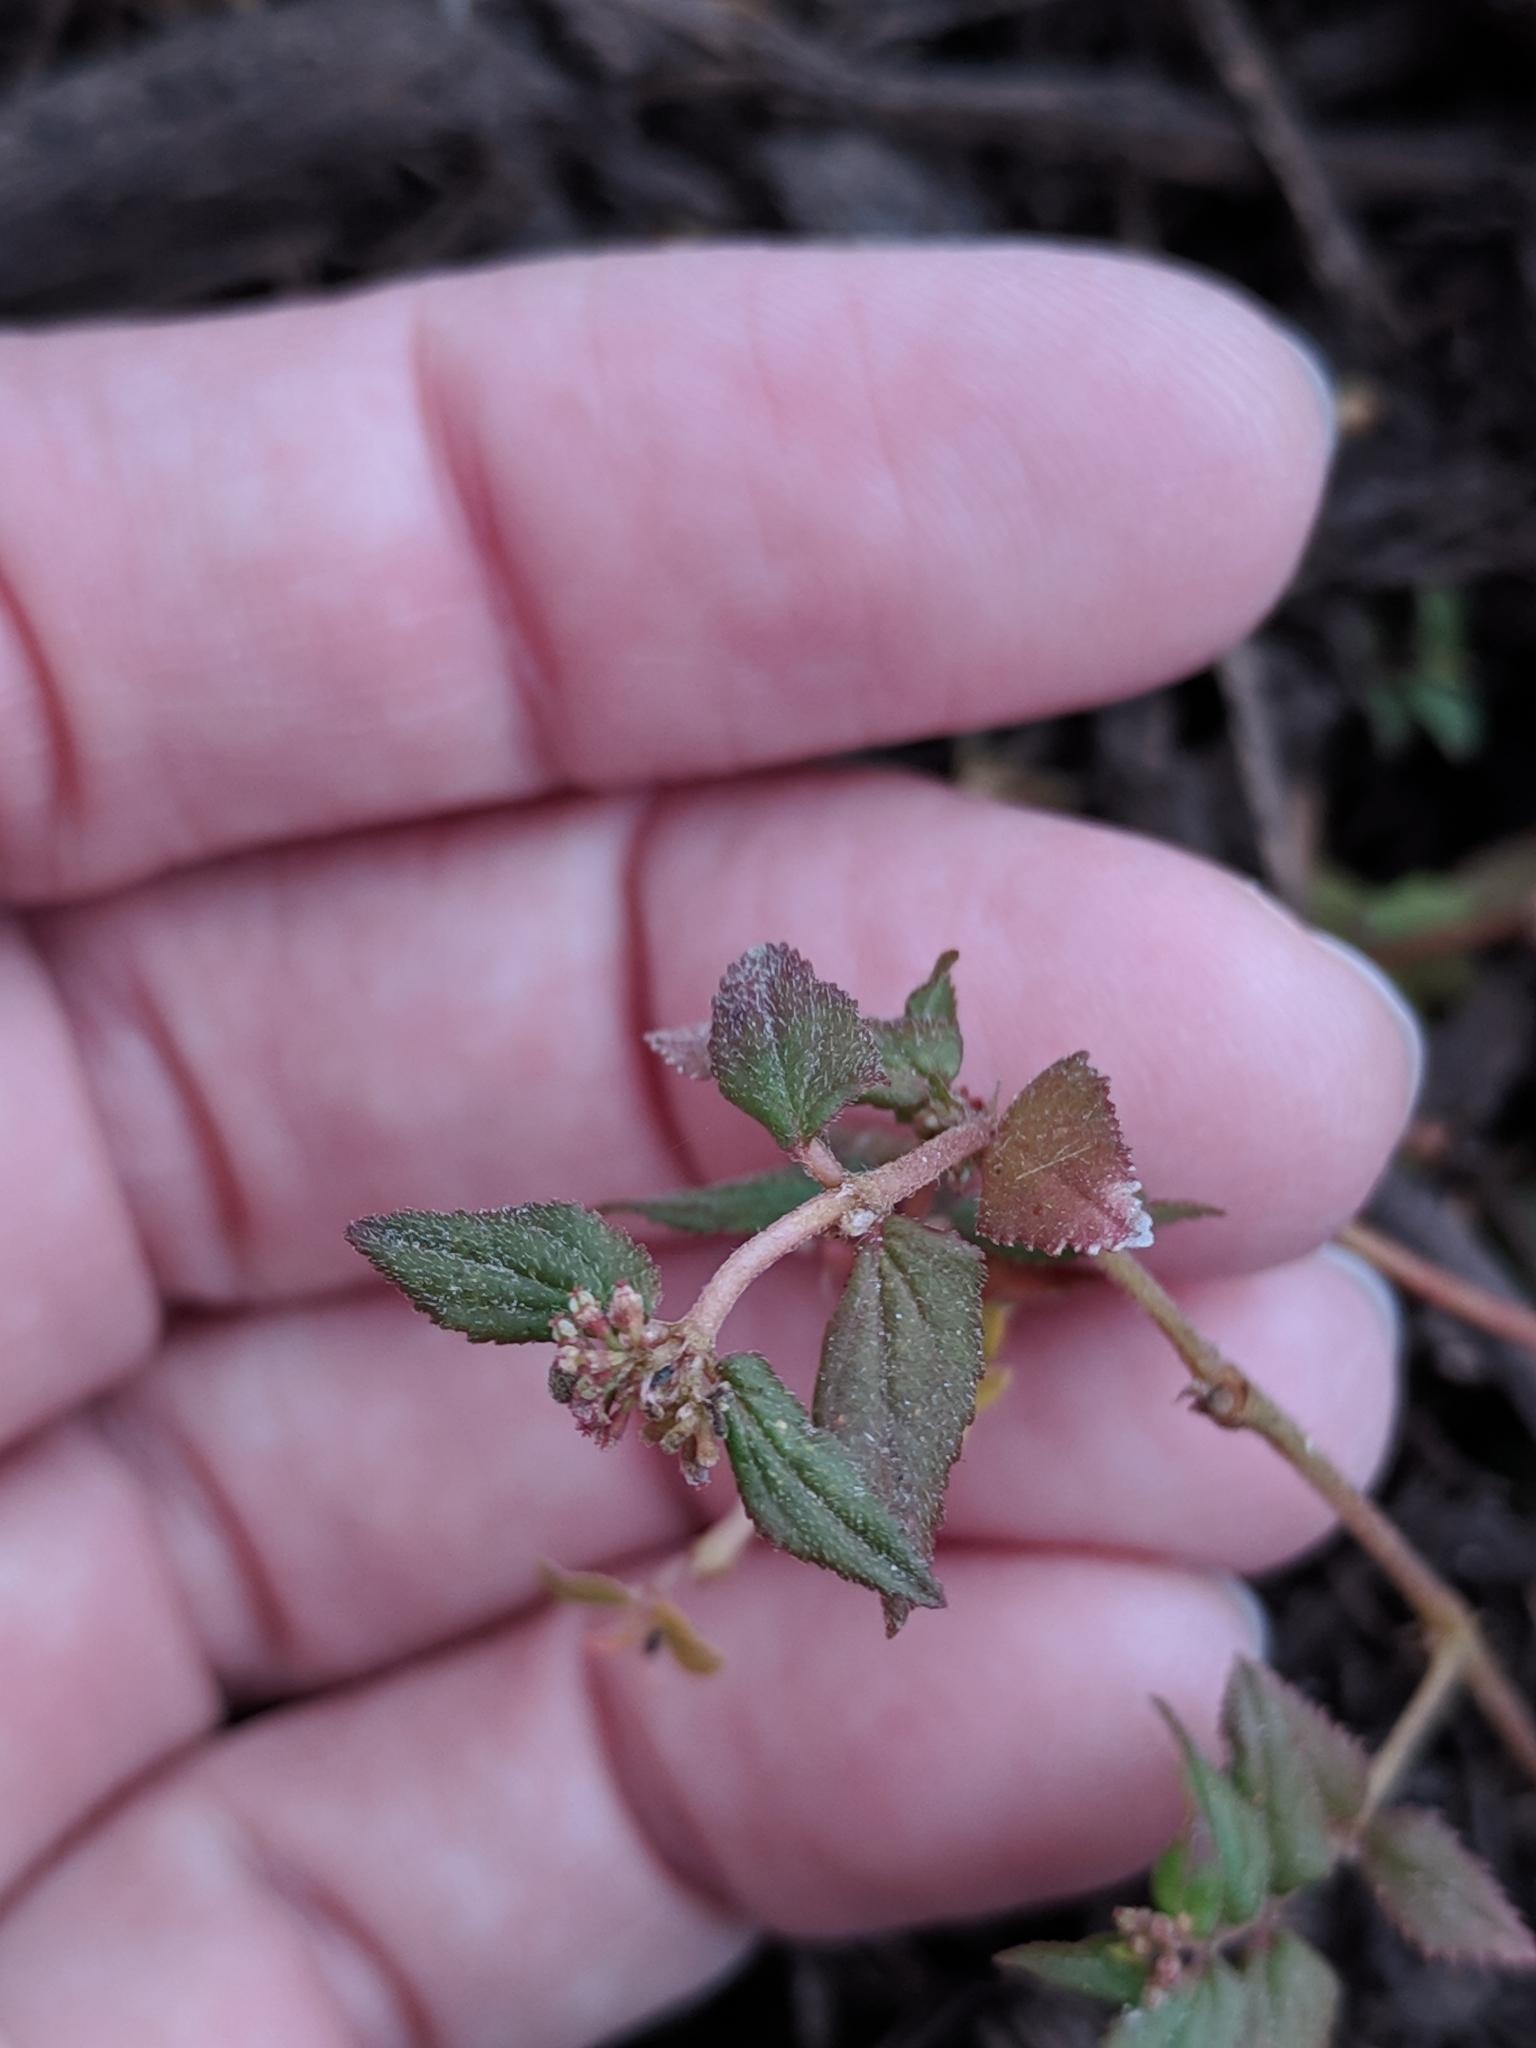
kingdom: Plantae
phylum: Tracheophyta
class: Magnoliopsida
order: Malpighiales
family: Euphorbiaceae
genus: Euphorbia
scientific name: Euphorbia ophthalmica
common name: Florida hammock sandmat
